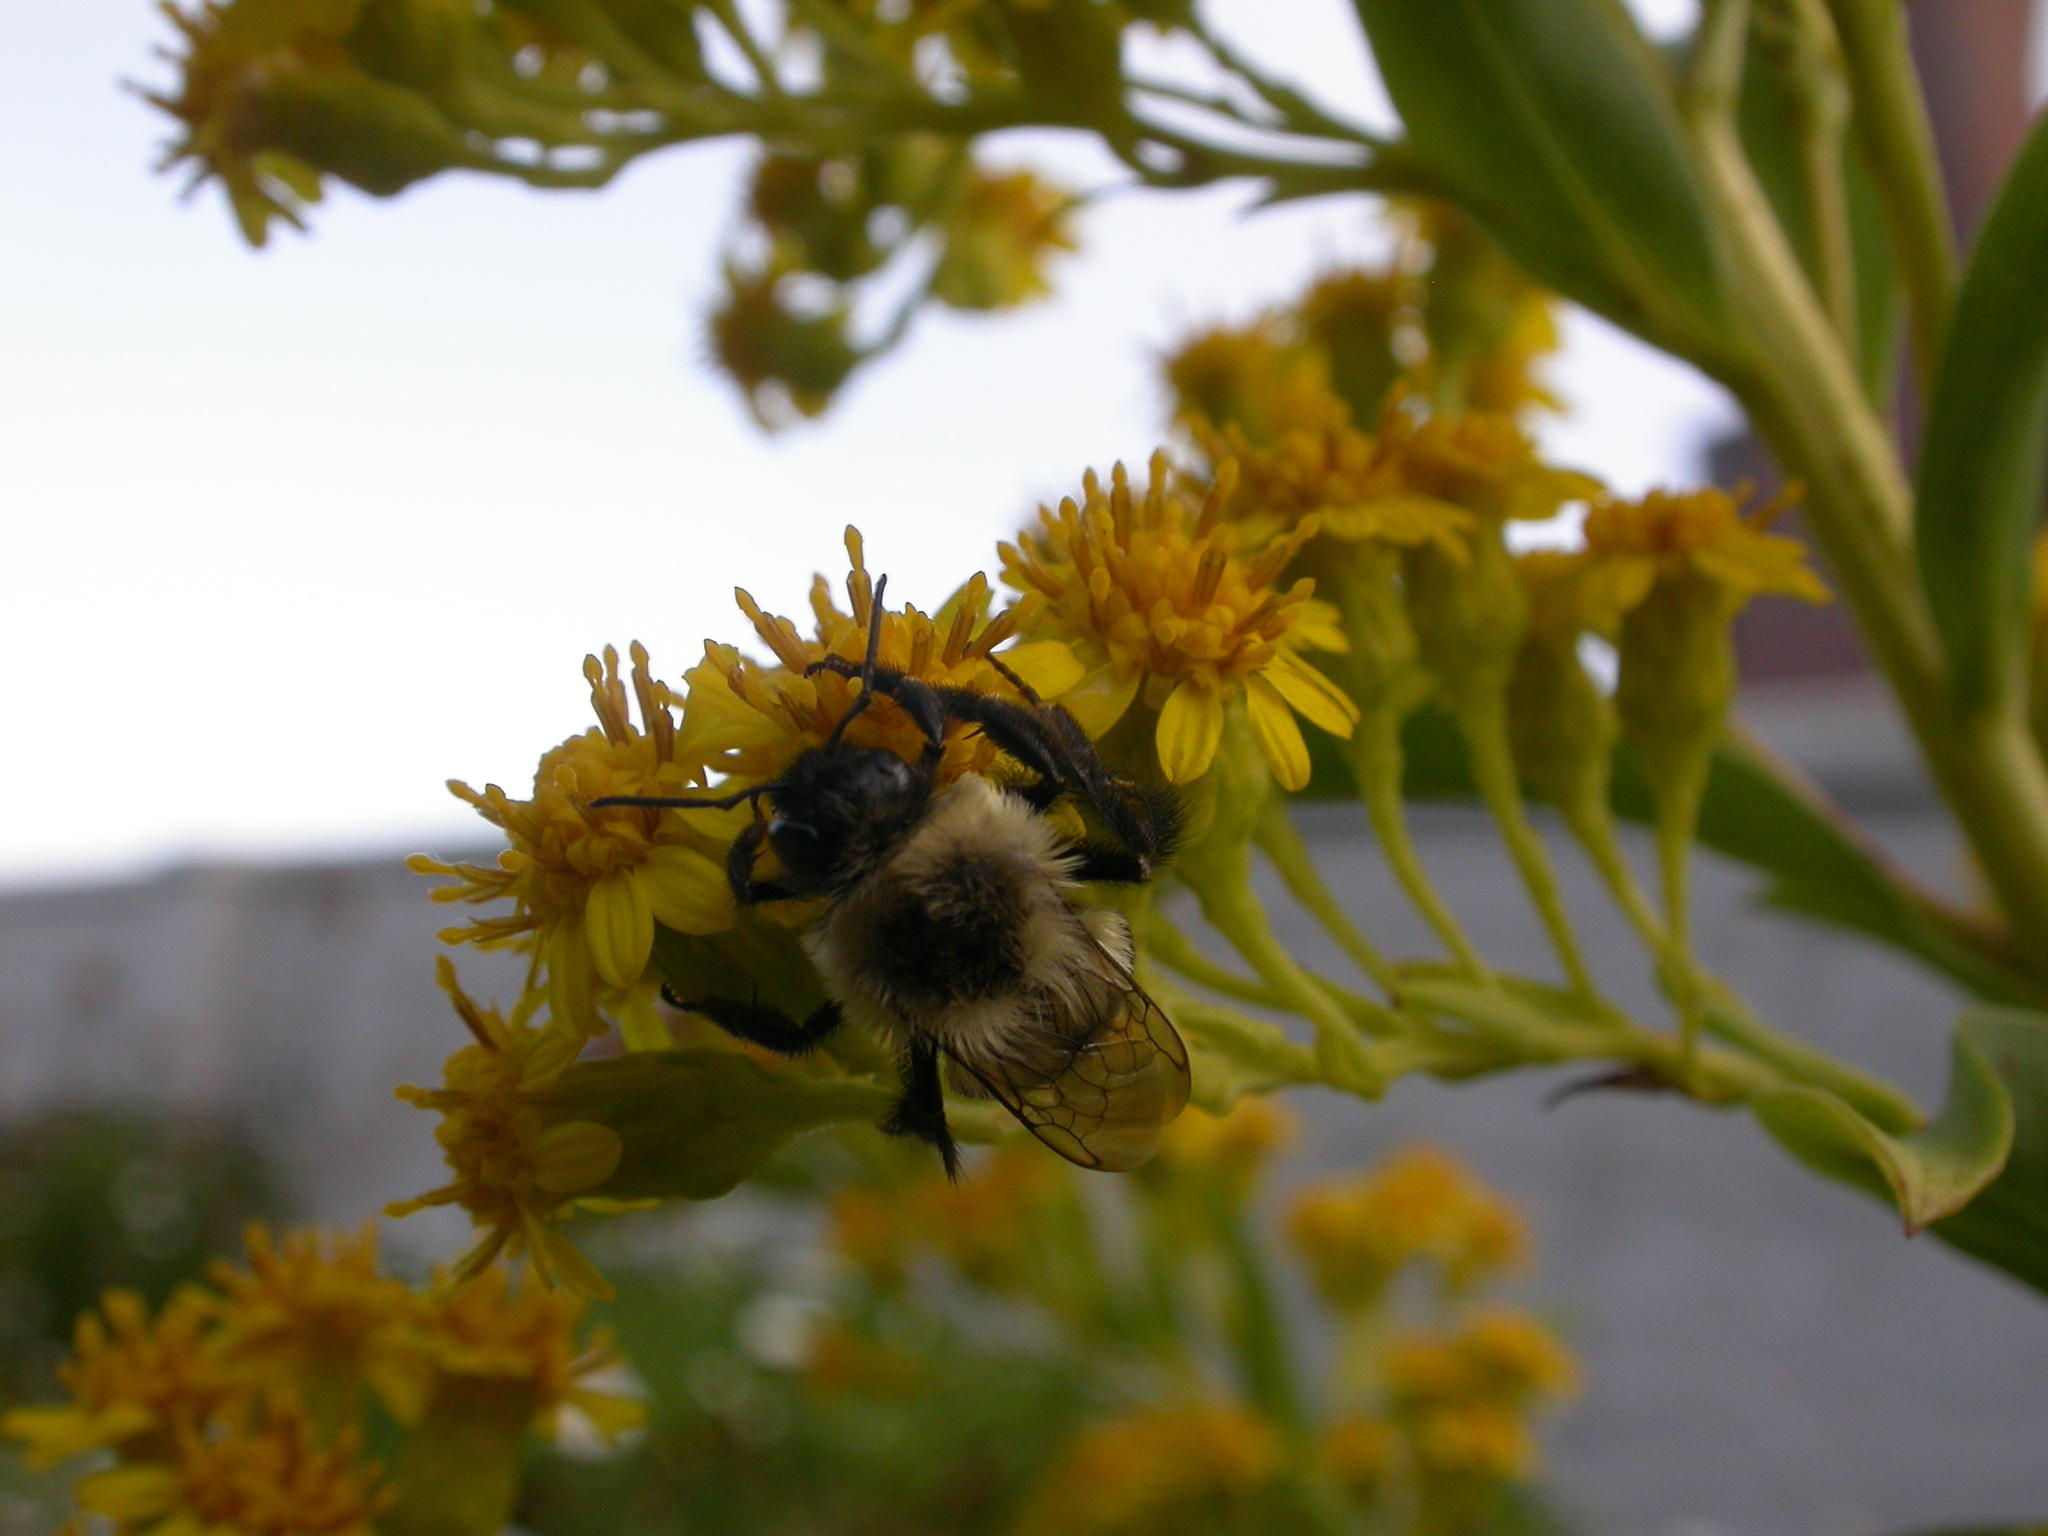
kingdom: Animalia
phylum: Arthropoda
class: Insecta
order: Hymenoptera
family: Apidae
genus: Bombus
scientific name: Bombus impatiens
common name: Common eastern bumble bee
